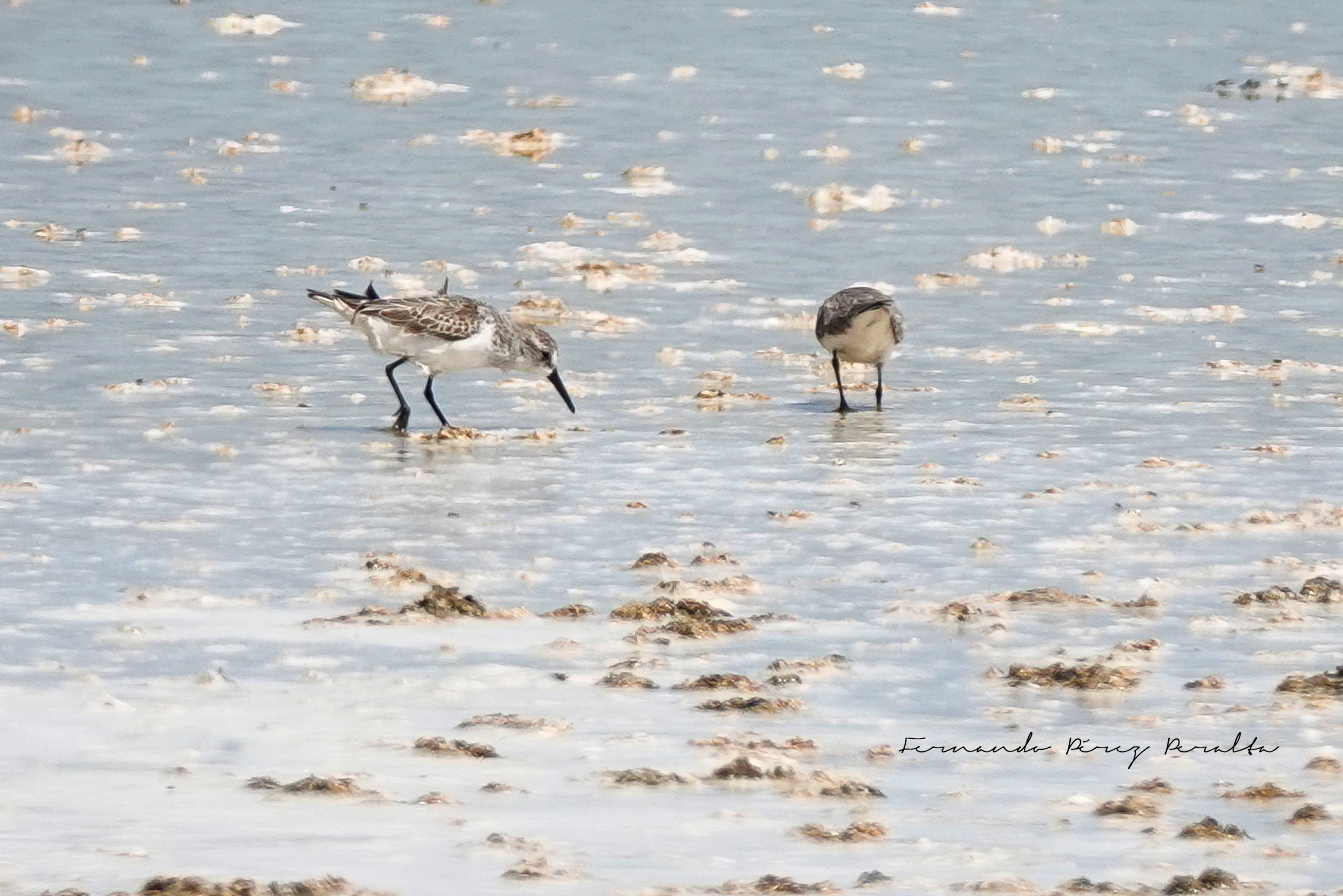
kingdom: Animalia
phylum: Chordata
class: Aves
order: Charadriiformes
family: Scolopacidae
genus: Calidris
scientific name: Calidris mauri
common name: Western sandpiper
